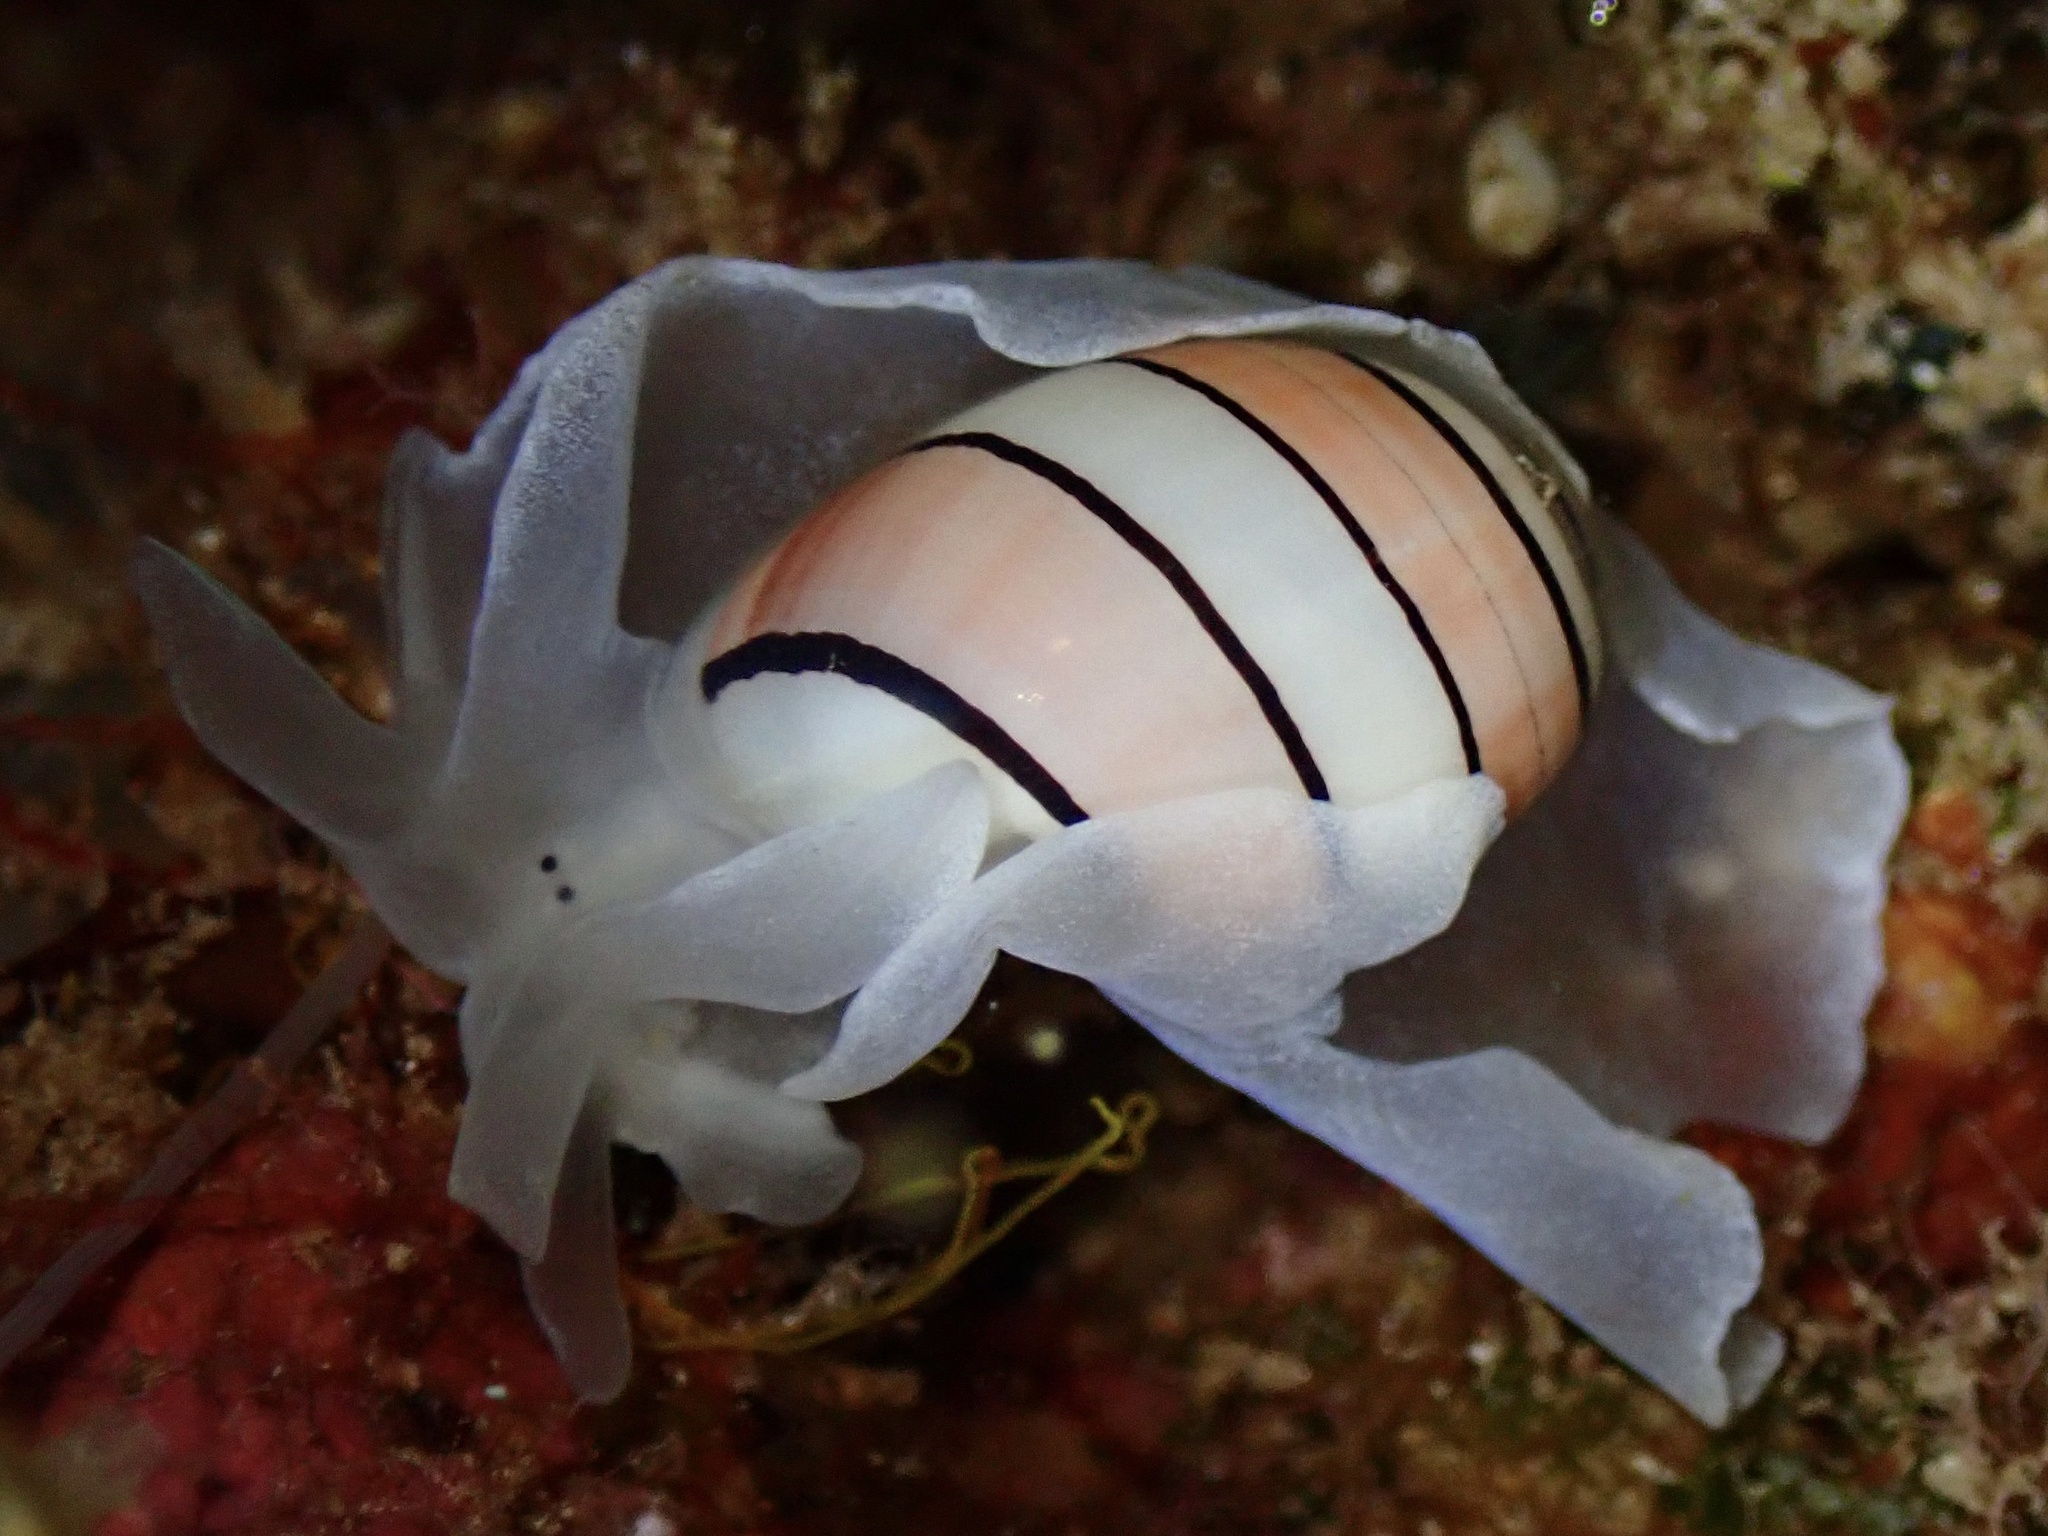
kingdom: Animalia
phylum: Mollusca
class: Gastropoda
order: Cephalaspidea
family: Aplustridae
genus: Aplustrum
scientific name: Aplustrum amplustre
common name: Royal paperbubble
